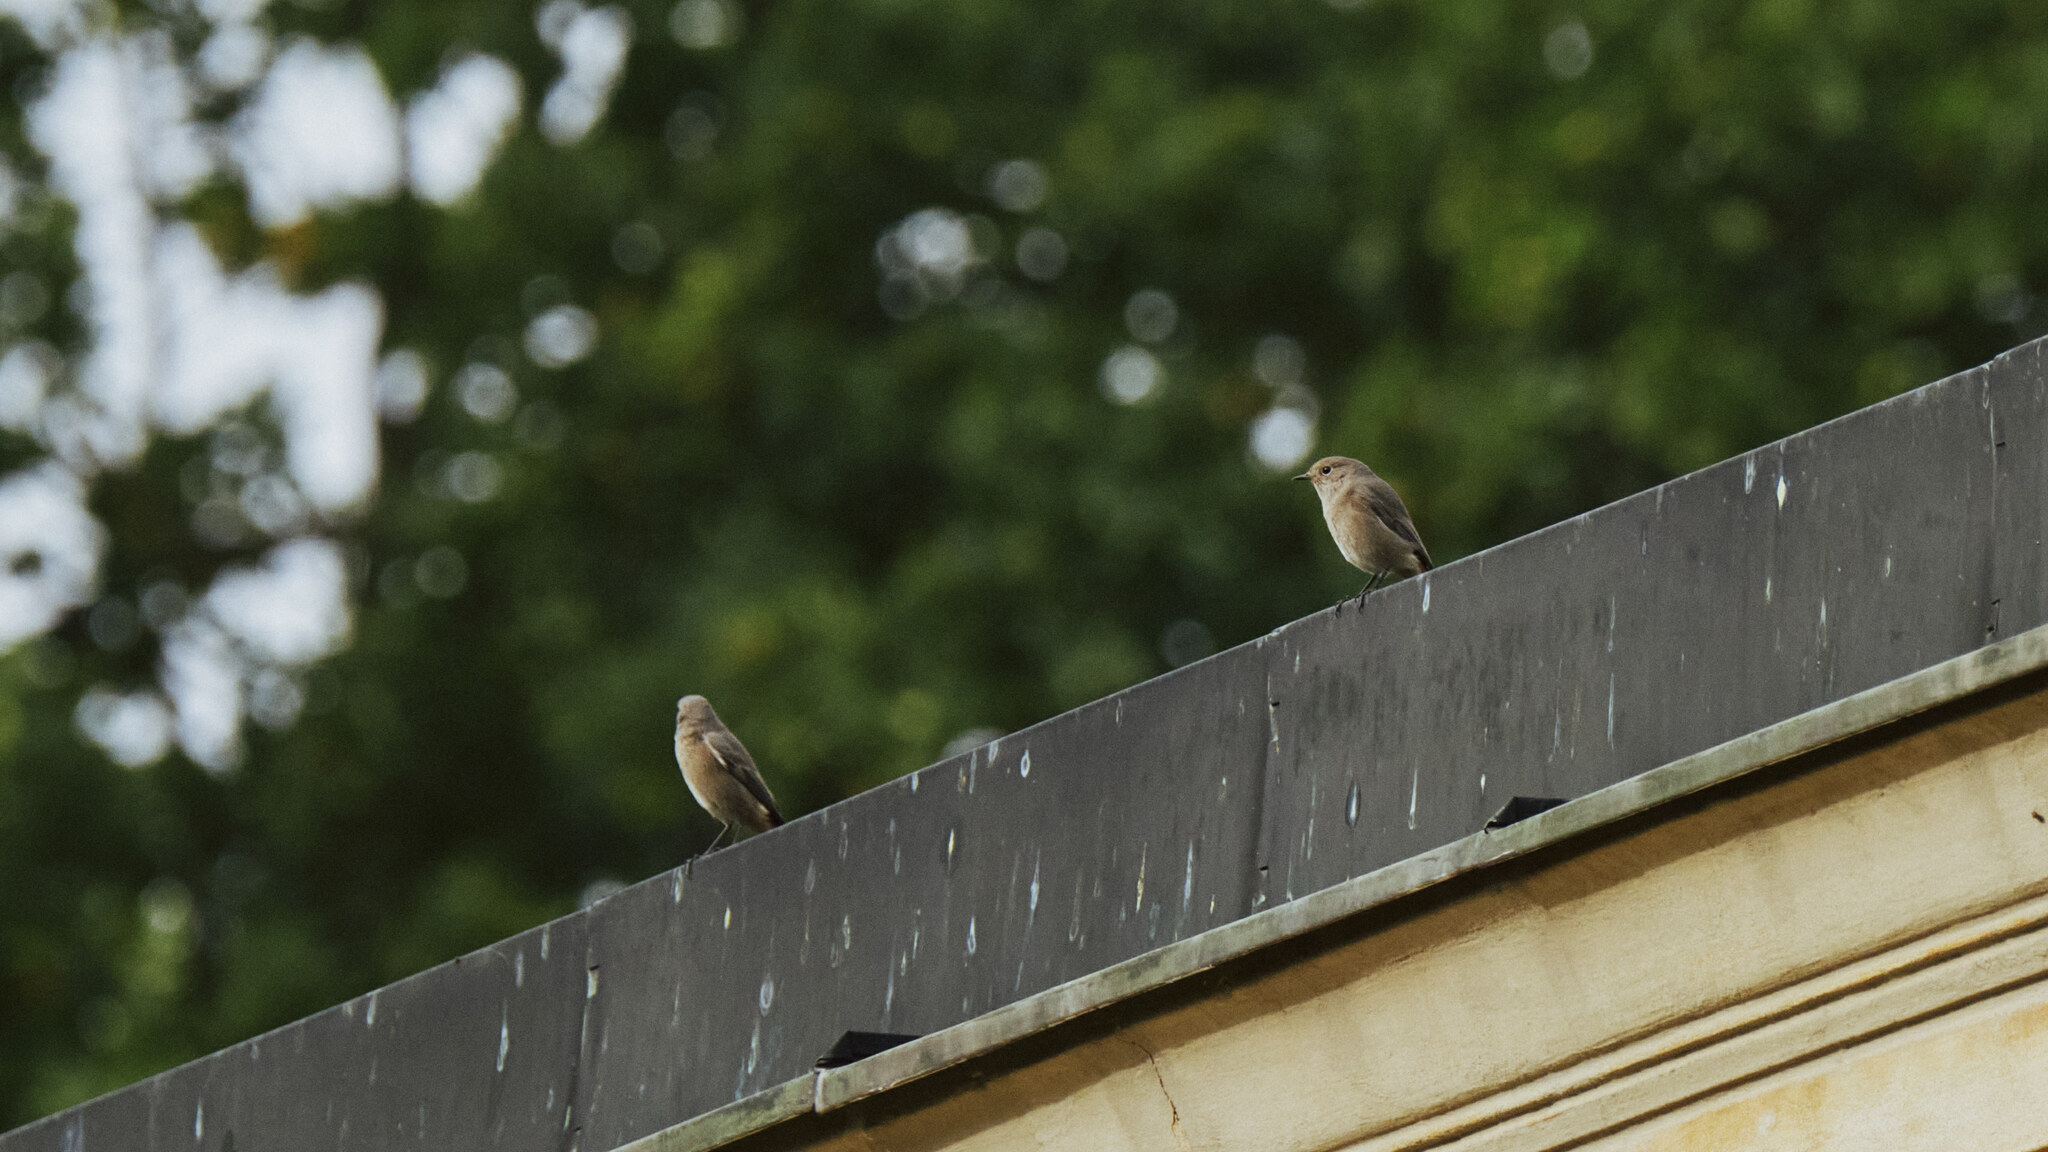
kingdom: Animalia
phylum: Chordata
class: Aves
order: Passeriformes
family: Muscicapidae
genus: Phoenicurus
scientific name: Phoenicurus phoenicurus
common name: Common redstart
